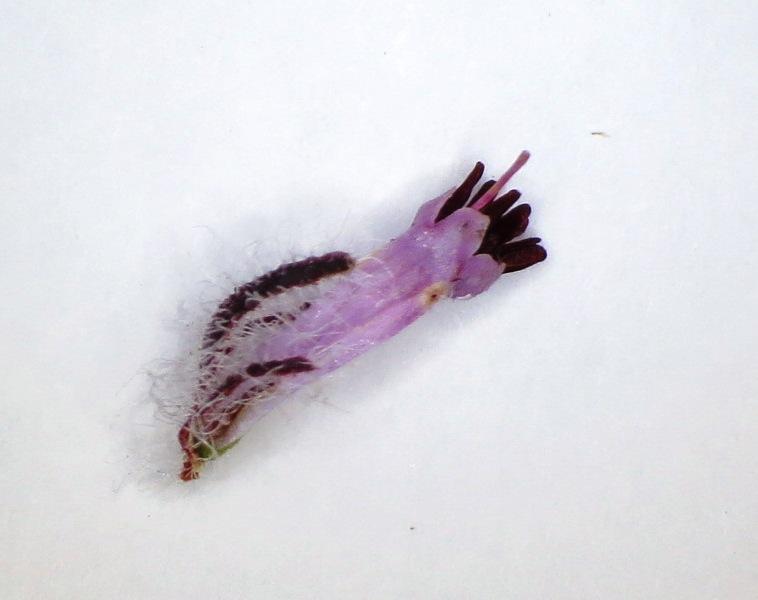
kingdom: Plantae
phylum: Tracheophyta
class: Magnoliopsida
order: Ericales
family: Ericaceae
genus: Erica
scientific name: Erica barbigeroides
